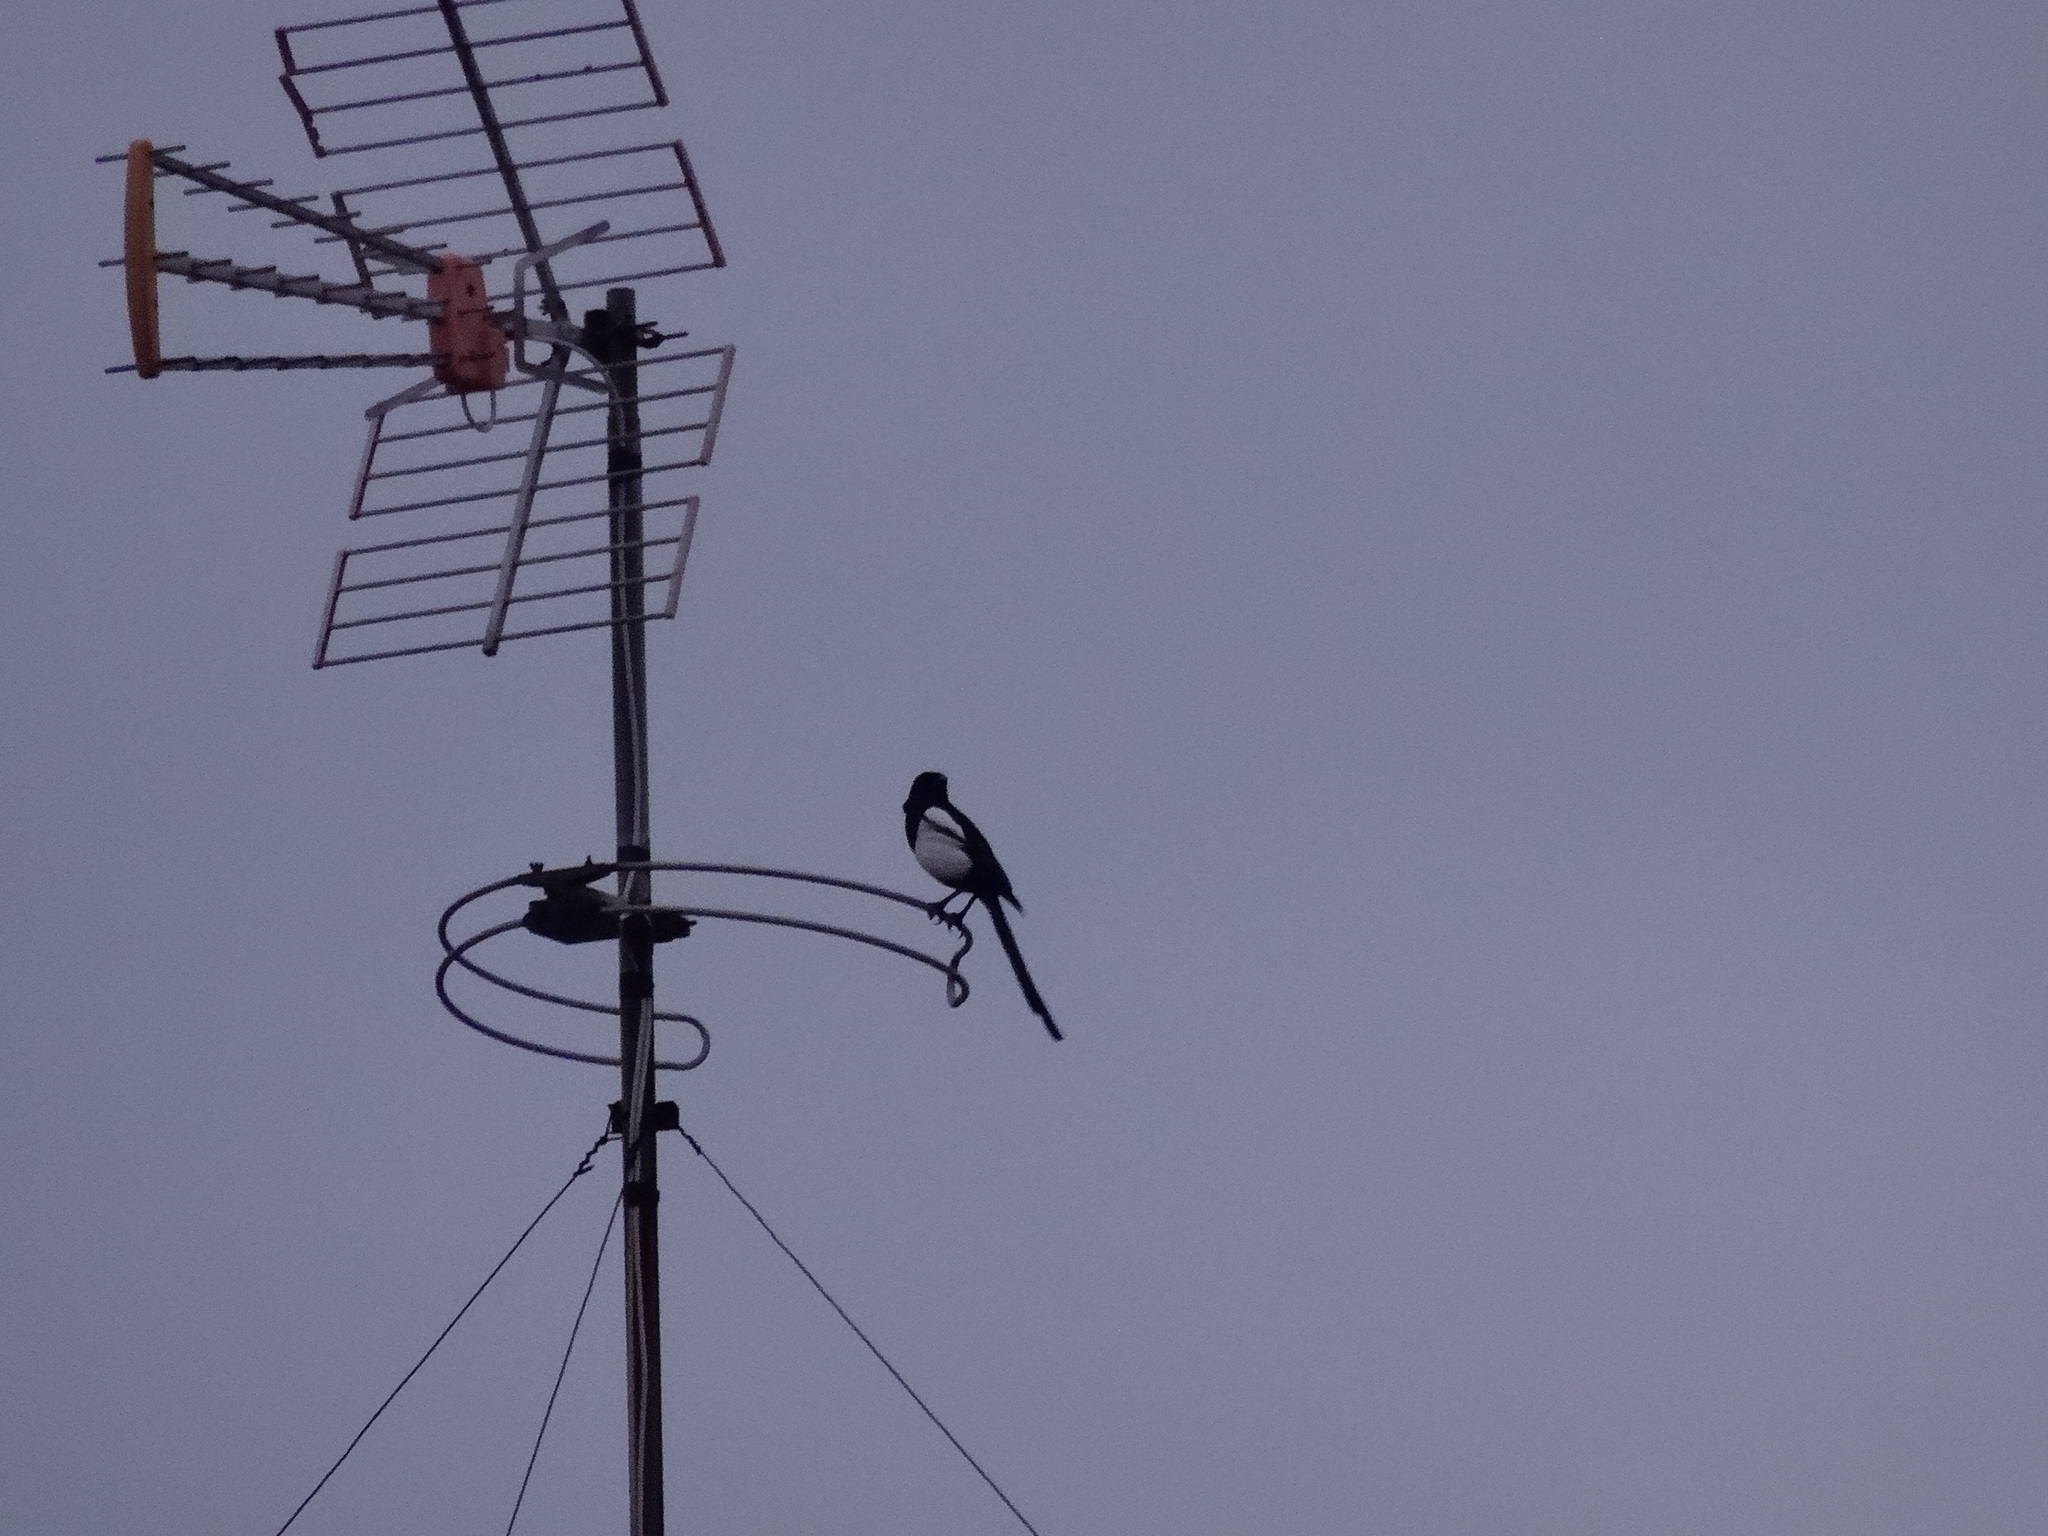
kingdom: Animalia
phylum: Chordata
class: Aves
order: Passeriformes
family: Corvidae
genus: Pica
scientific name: Pica pica
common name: Eurasian magpie
